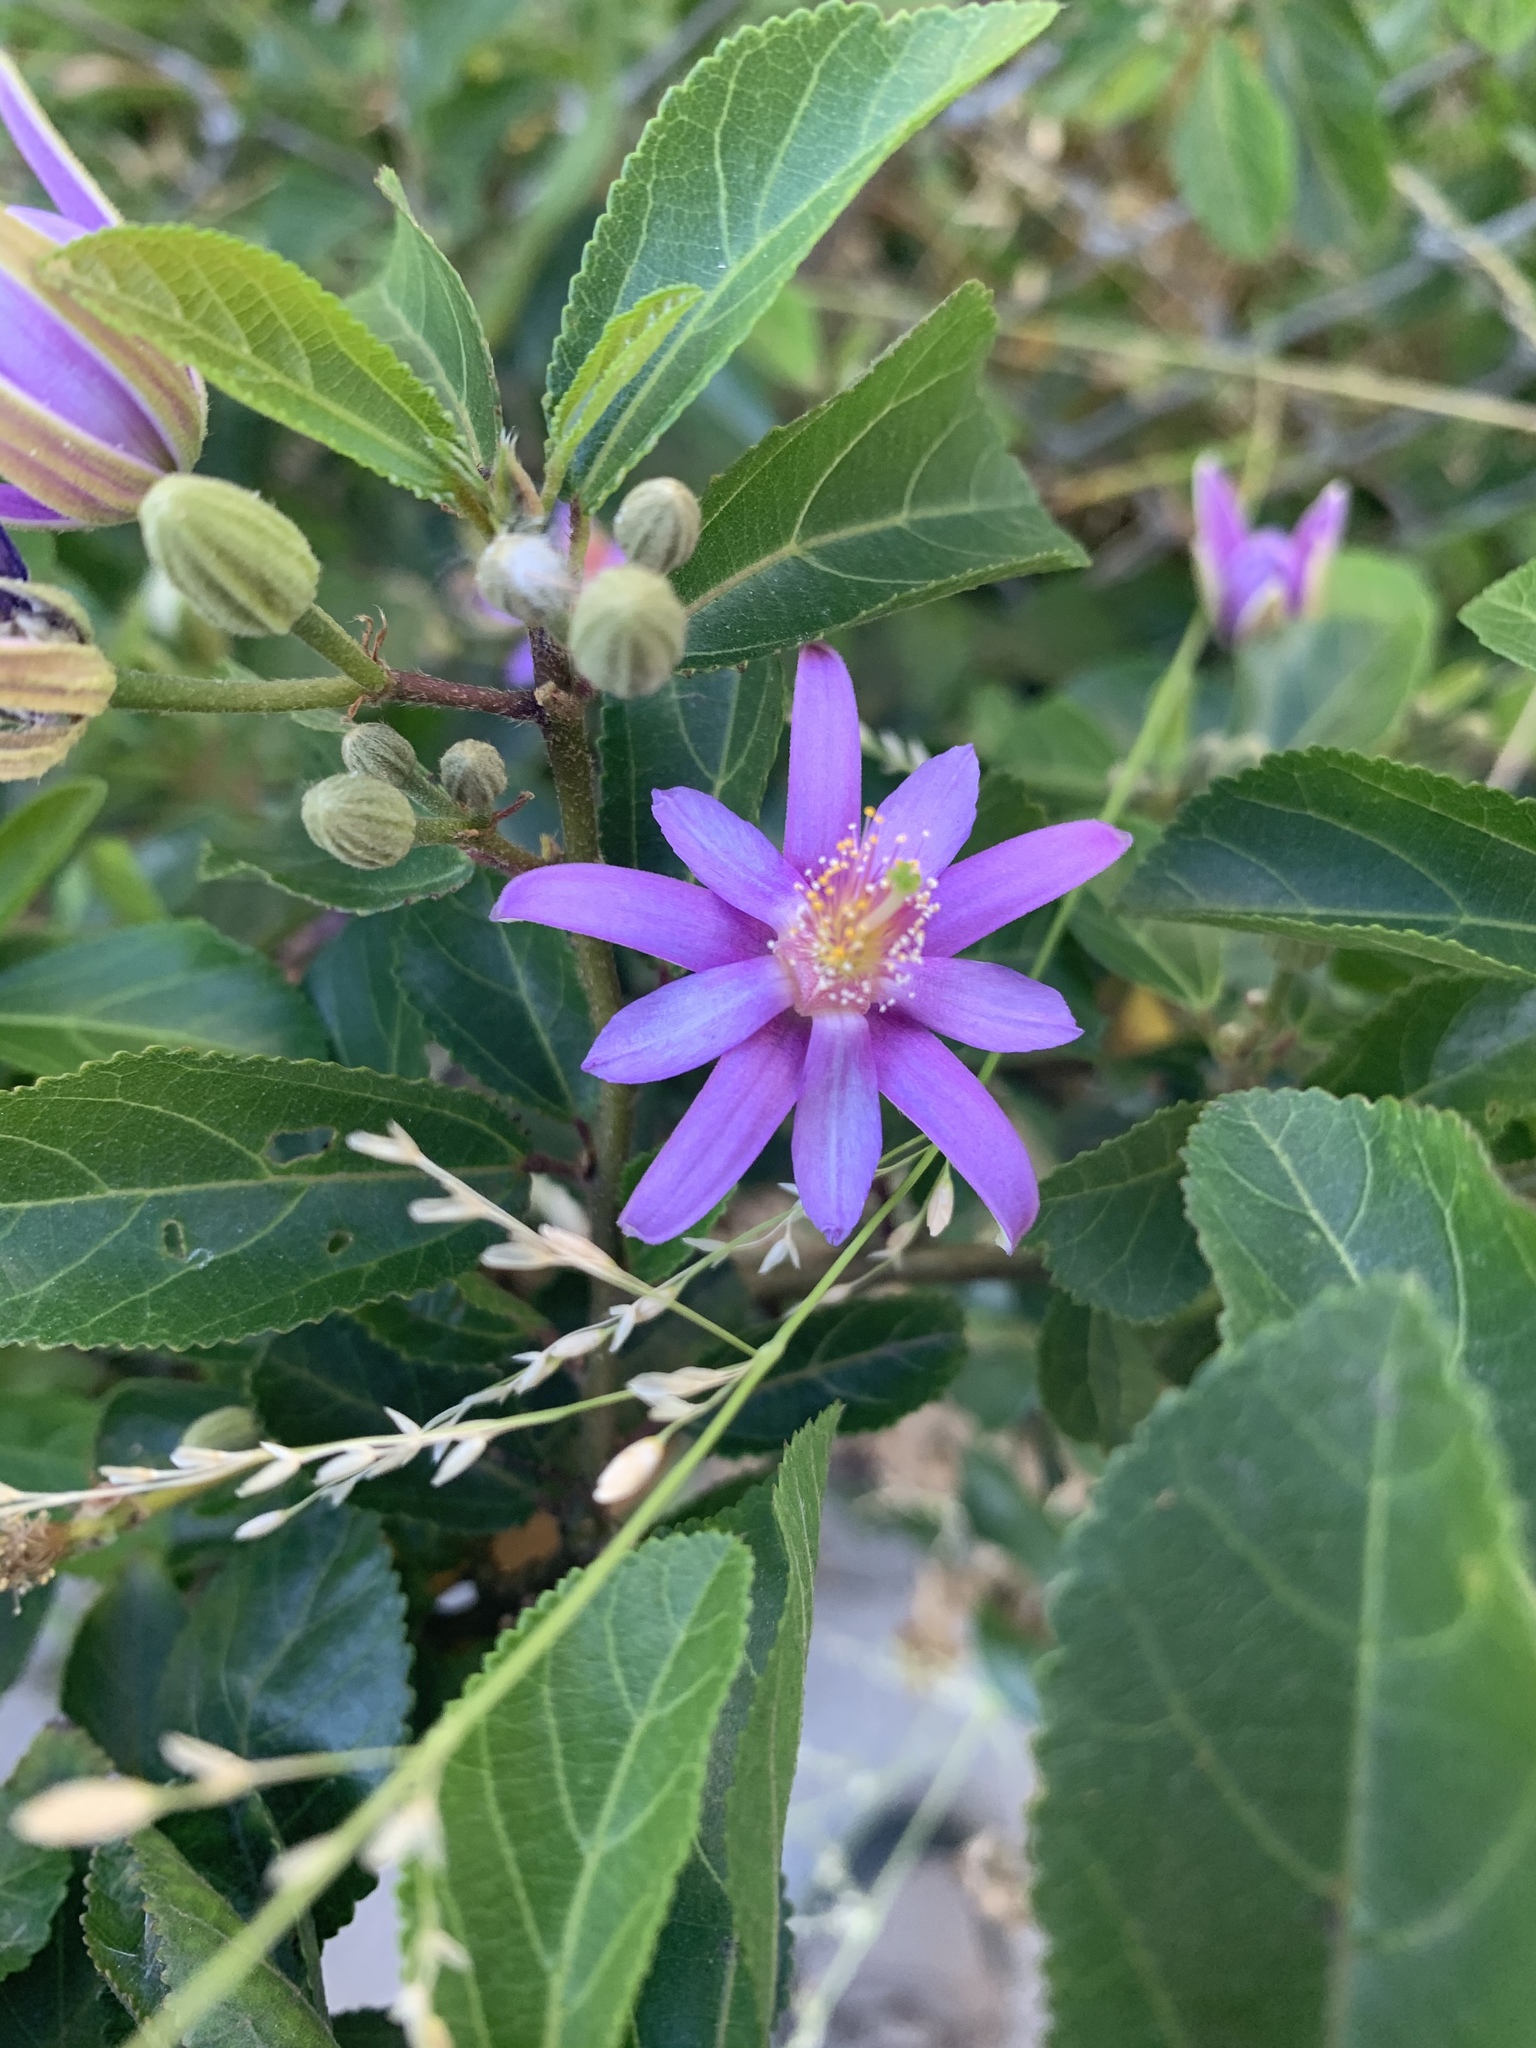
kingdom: Plantae
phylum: Tracheophyta
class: Magnoliopsida
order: Malvales
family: Malvaceae
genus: Grewia
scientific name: Grewia occidentalis
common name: Crossberry
